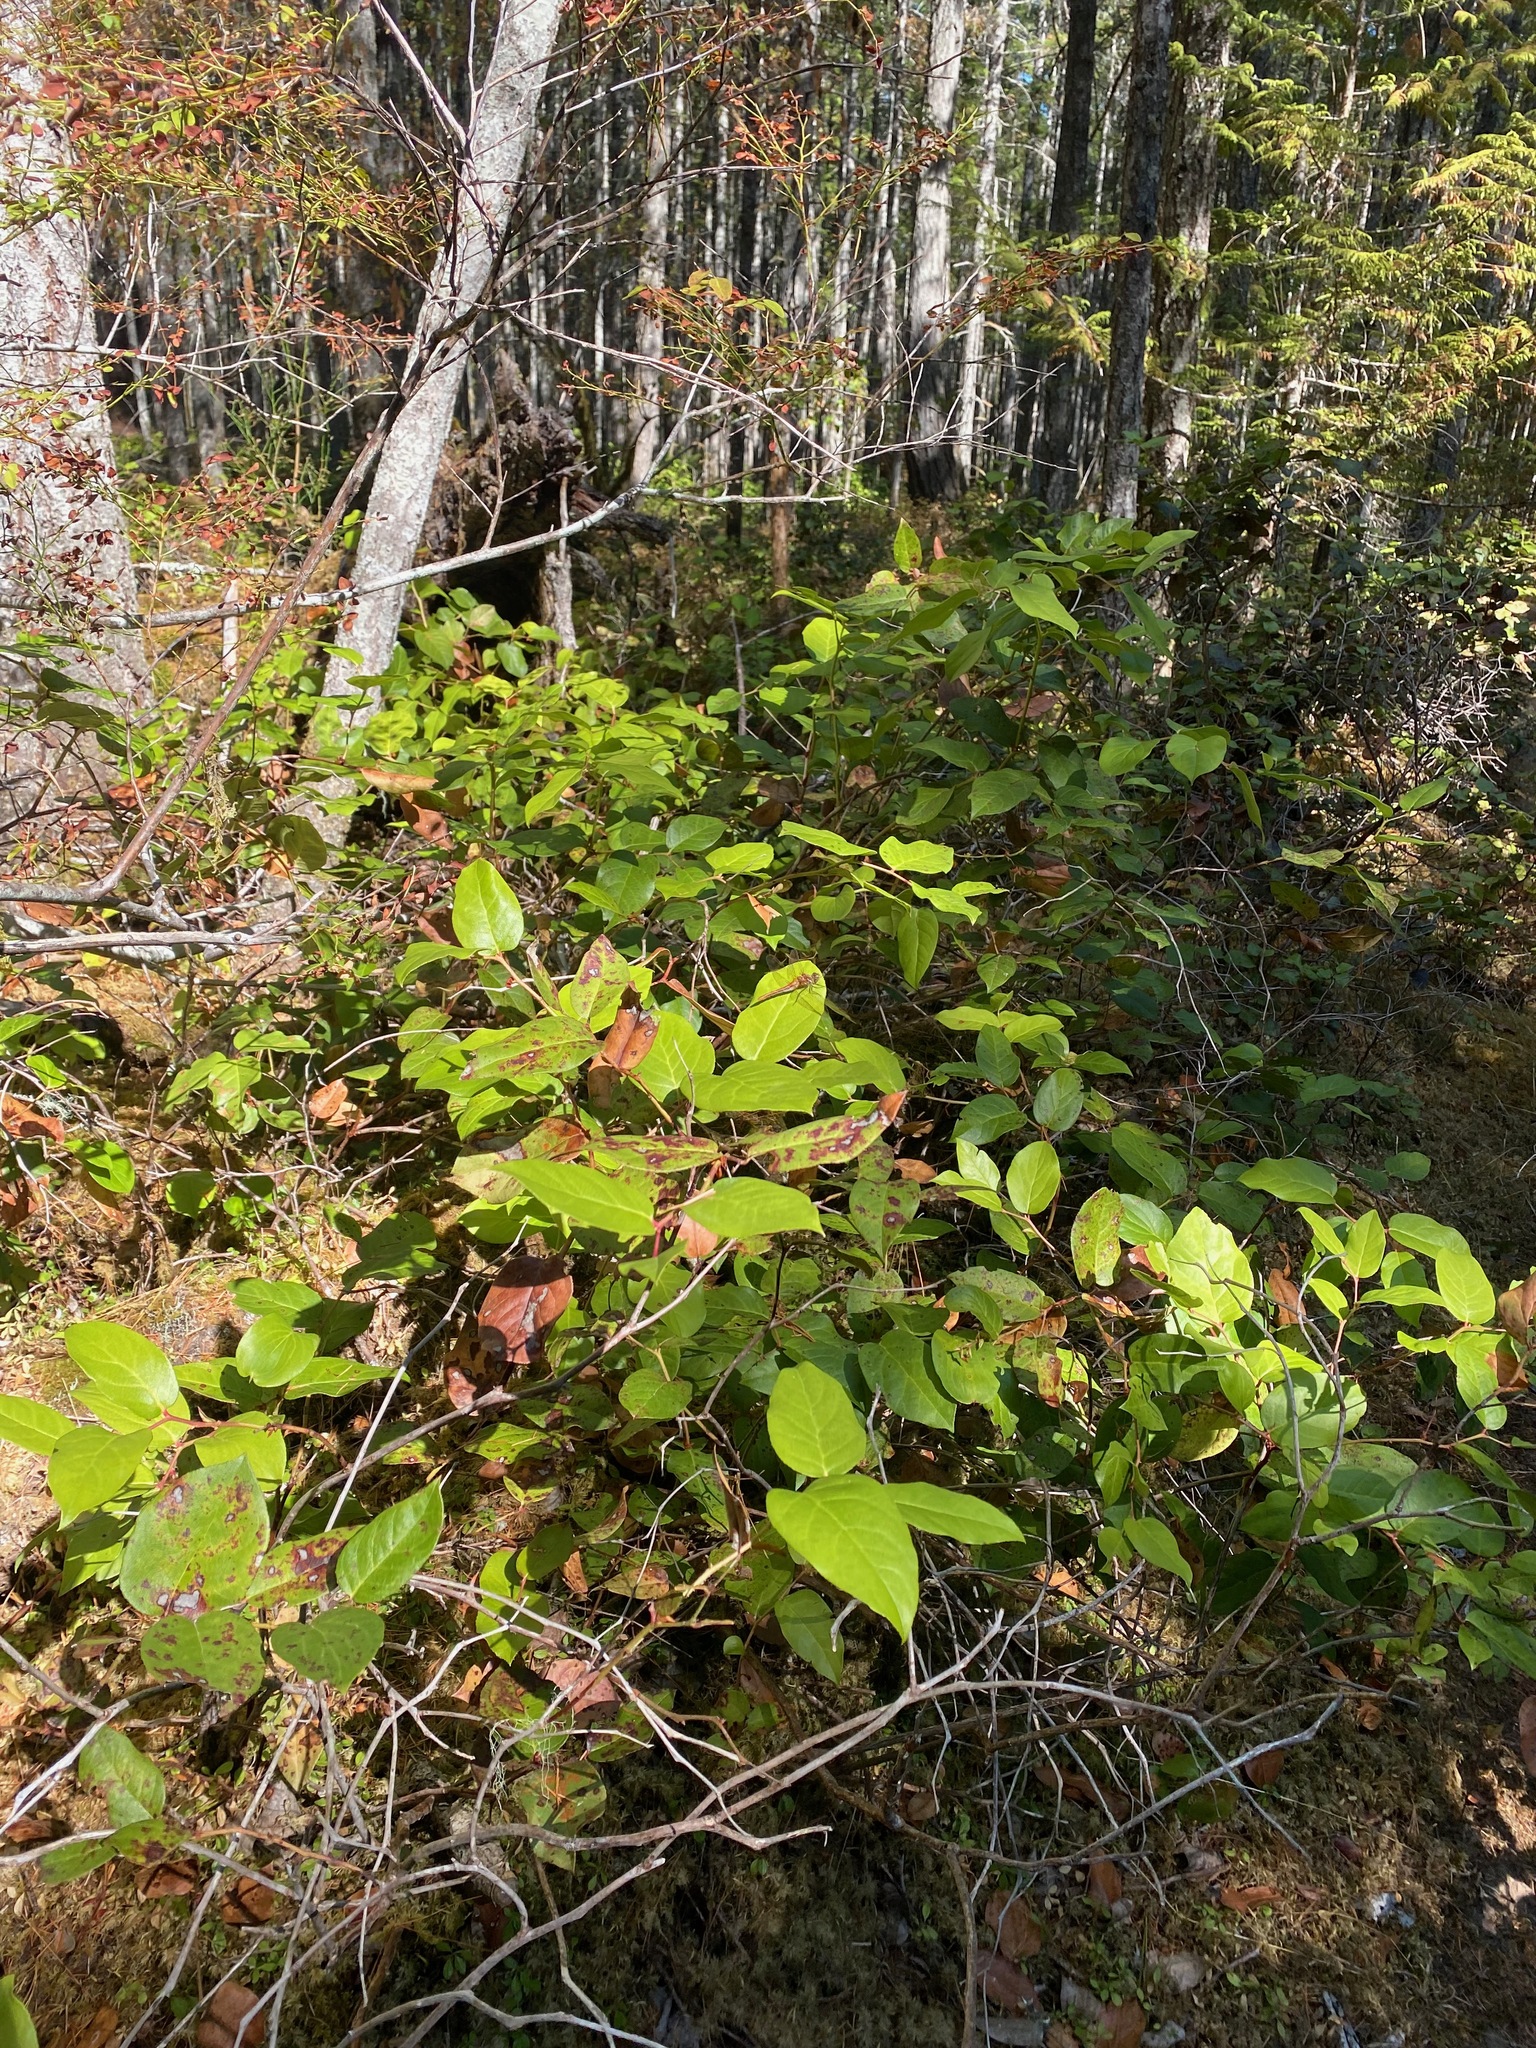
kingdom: Plantae
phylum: Tracheophyta
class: Magnoliopsida
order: Ericales
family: Ericaceae
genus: Gaultheria
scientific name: Gaultheria shallon
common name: Shallon
